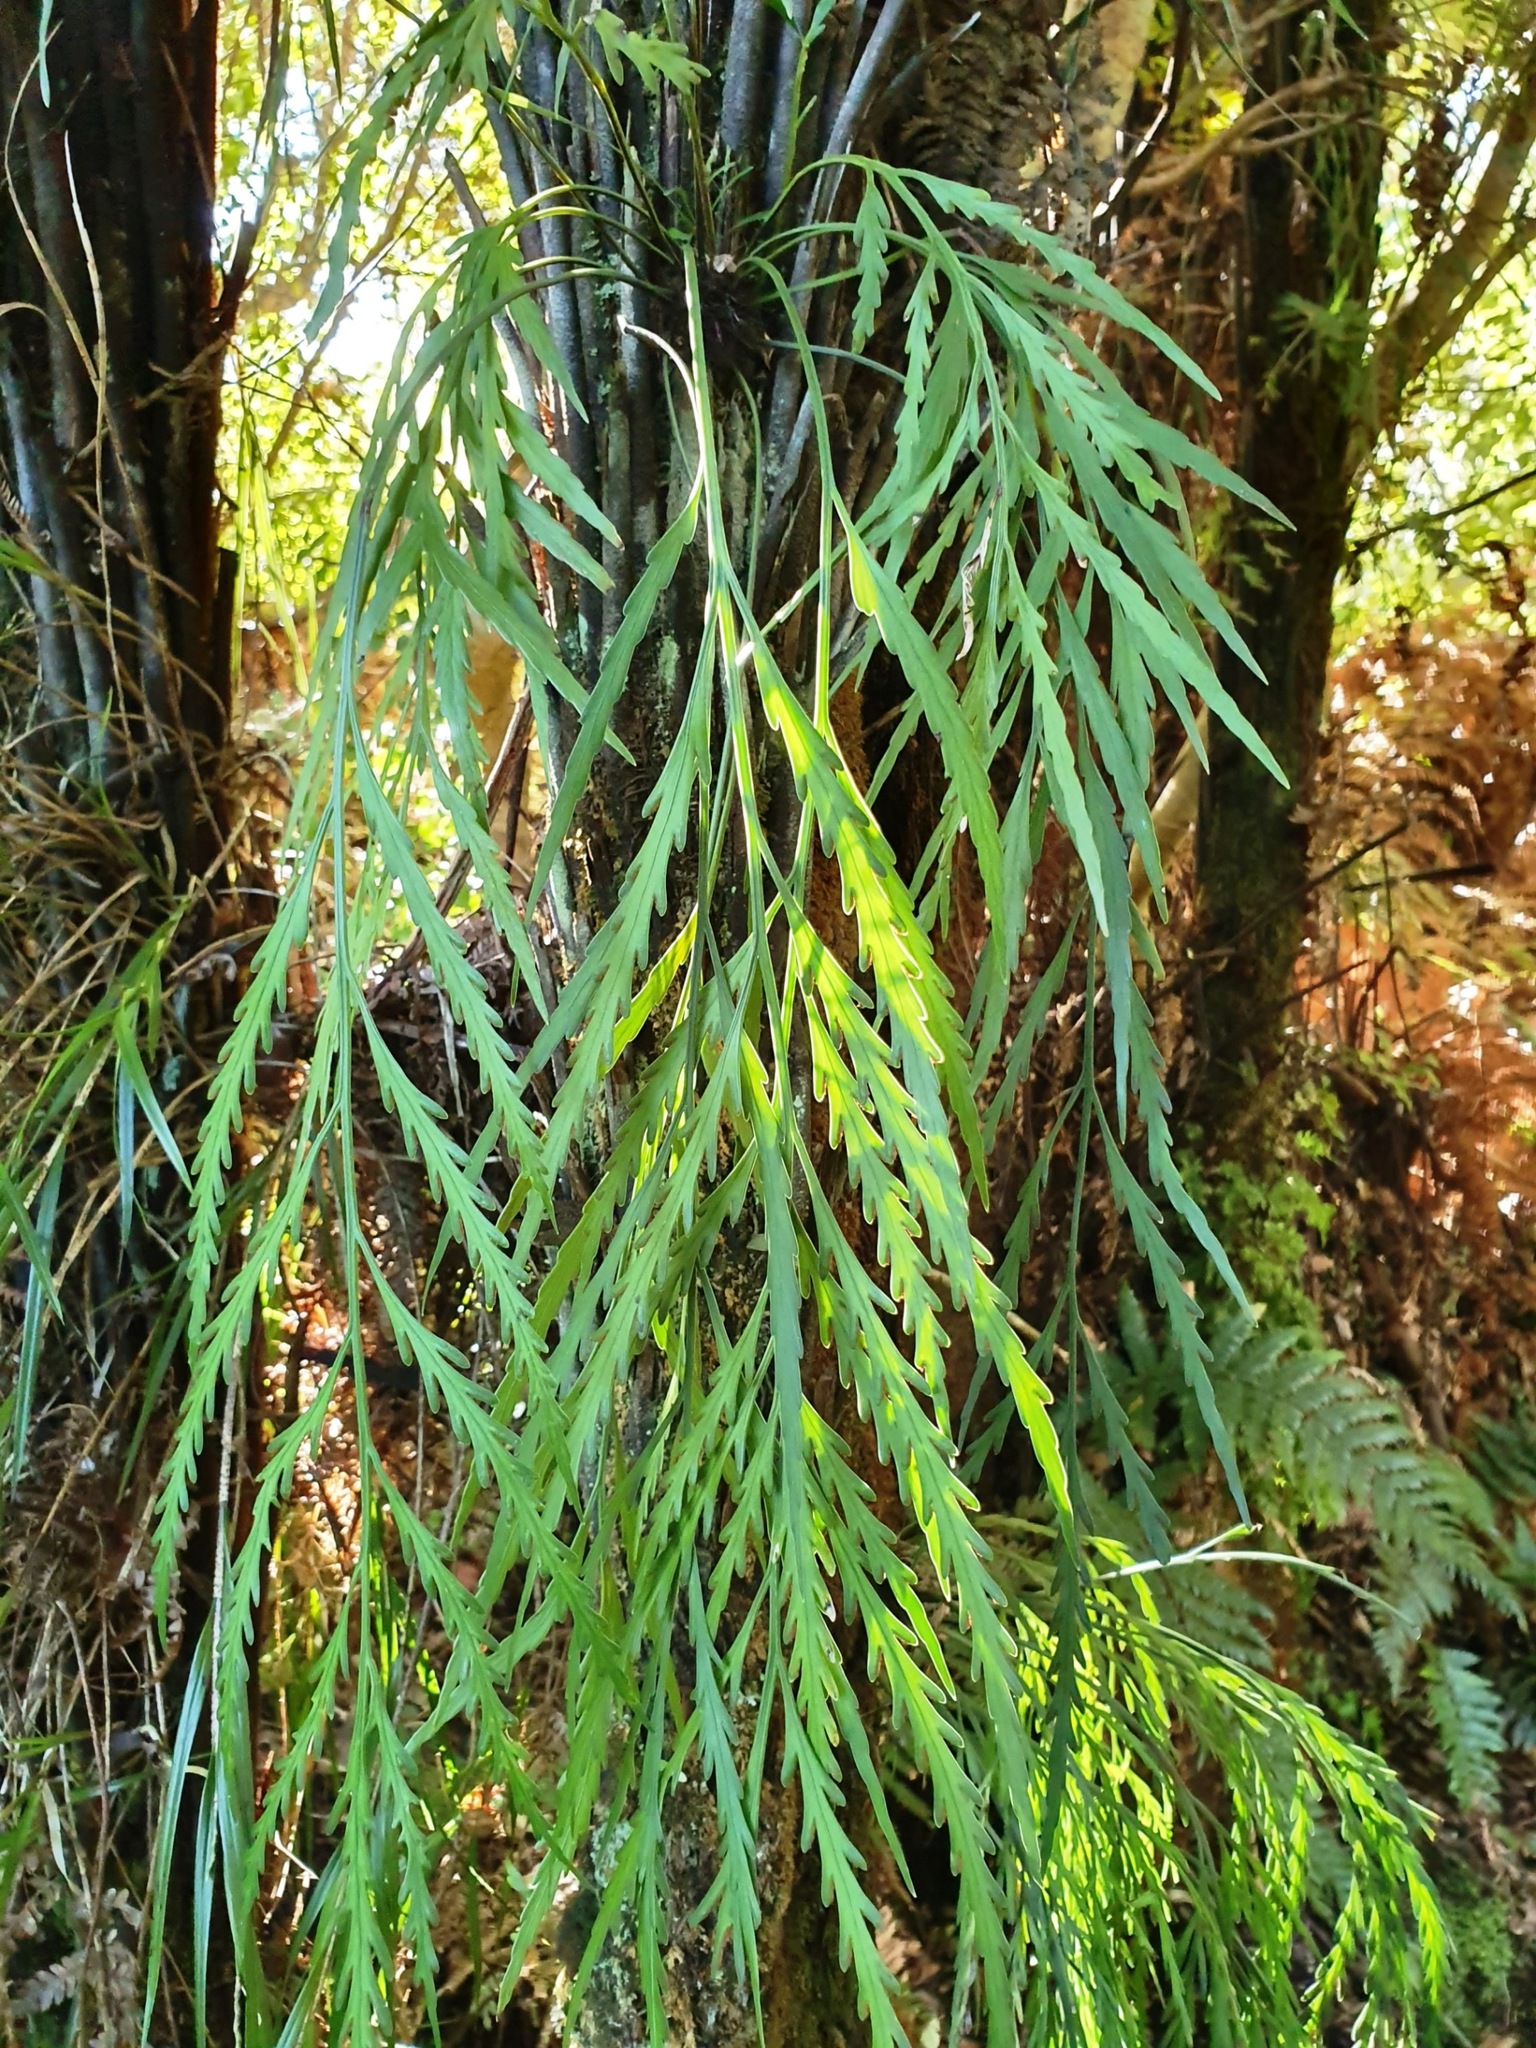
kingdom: Plantae
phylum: Tracheophyta
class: Polypodiopsida
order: Polypodiales
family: Aspleniaceae
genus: Asplenium
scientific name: Asplenium flaccidum
